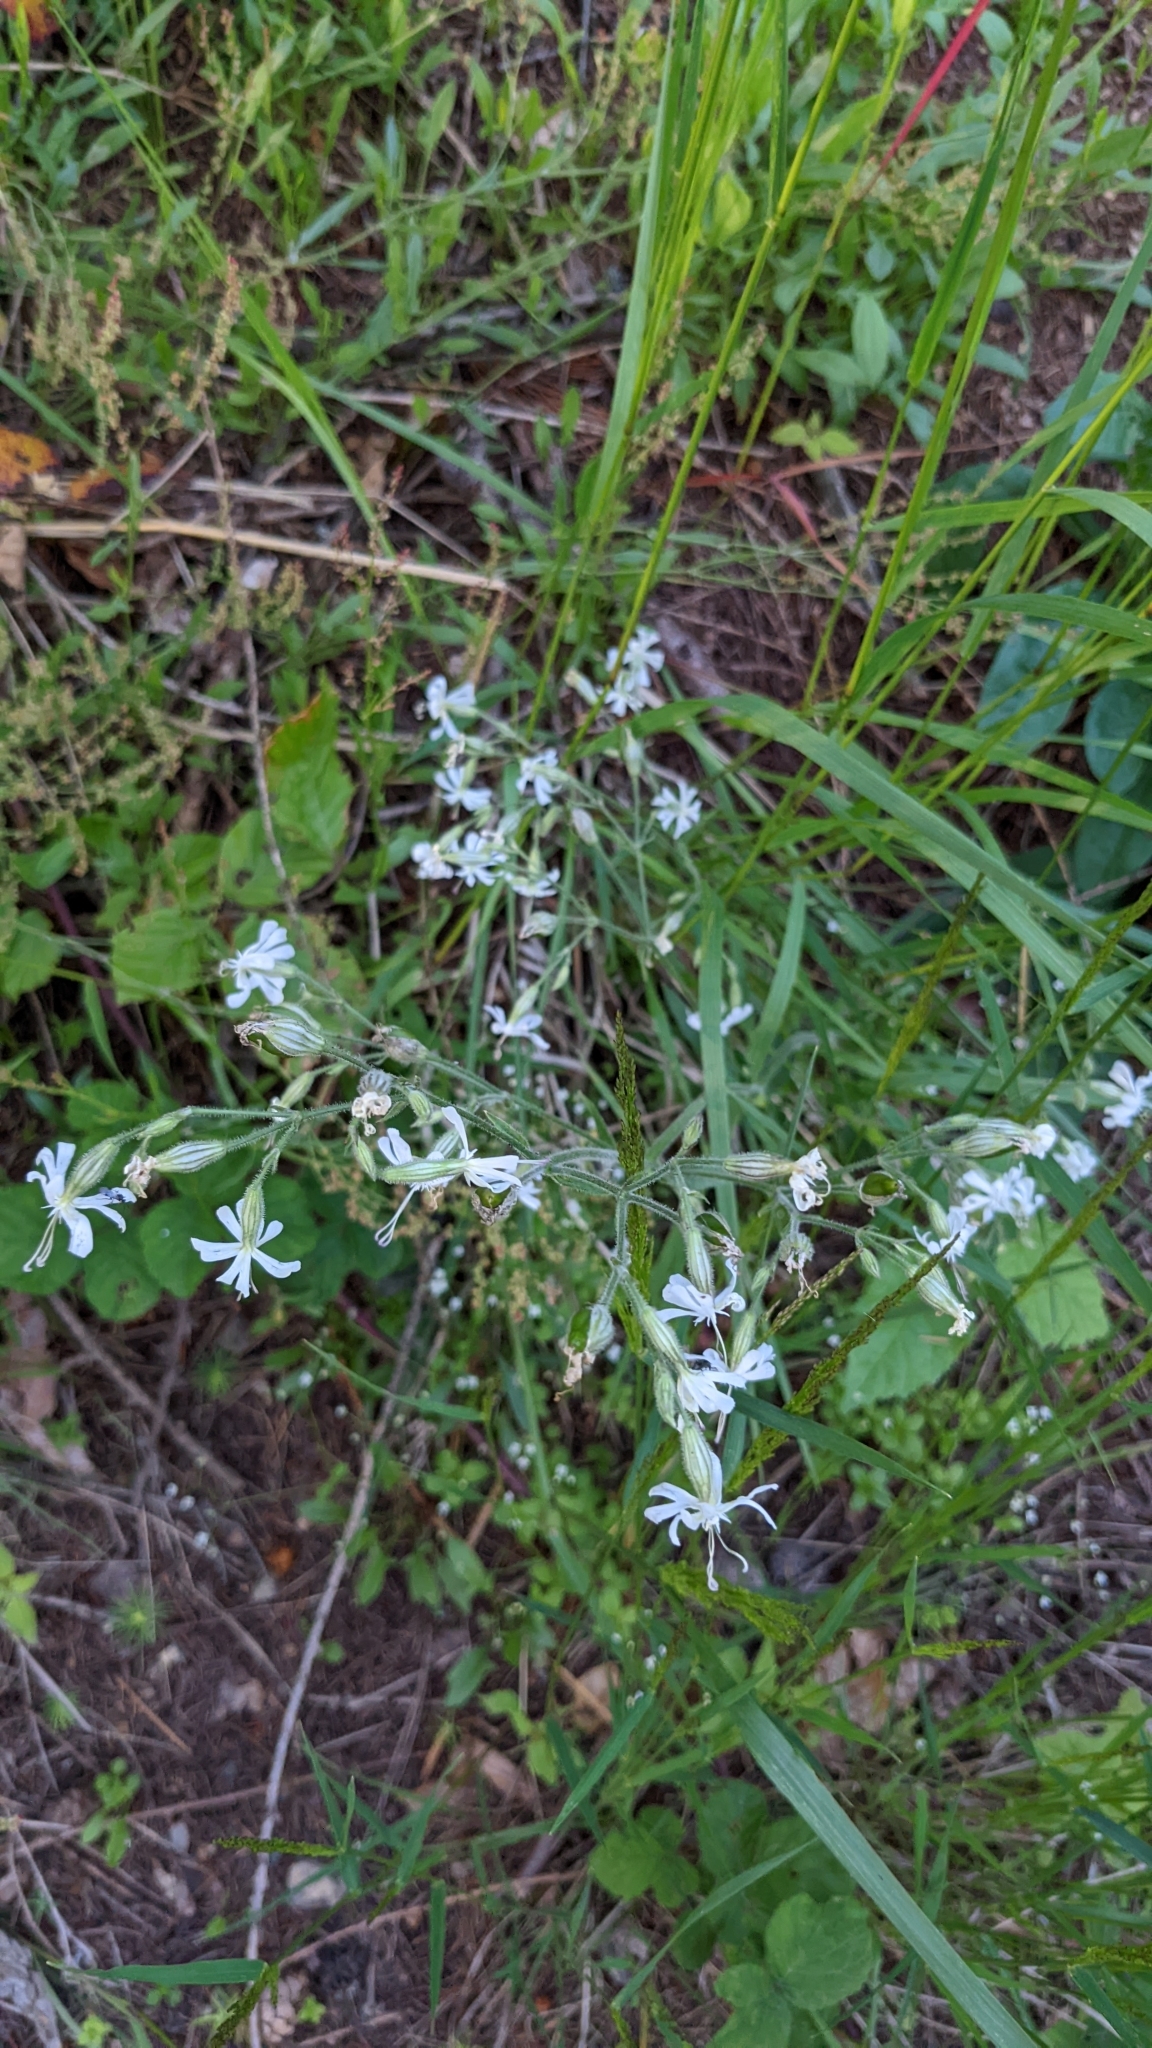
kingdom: Plantae
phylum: Tracheophyta
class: Magnoliopsida
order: Caryophyllales
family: Caryophyllaceae
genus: Silene
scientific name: Silene nutans
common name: Nottingham catchfly
